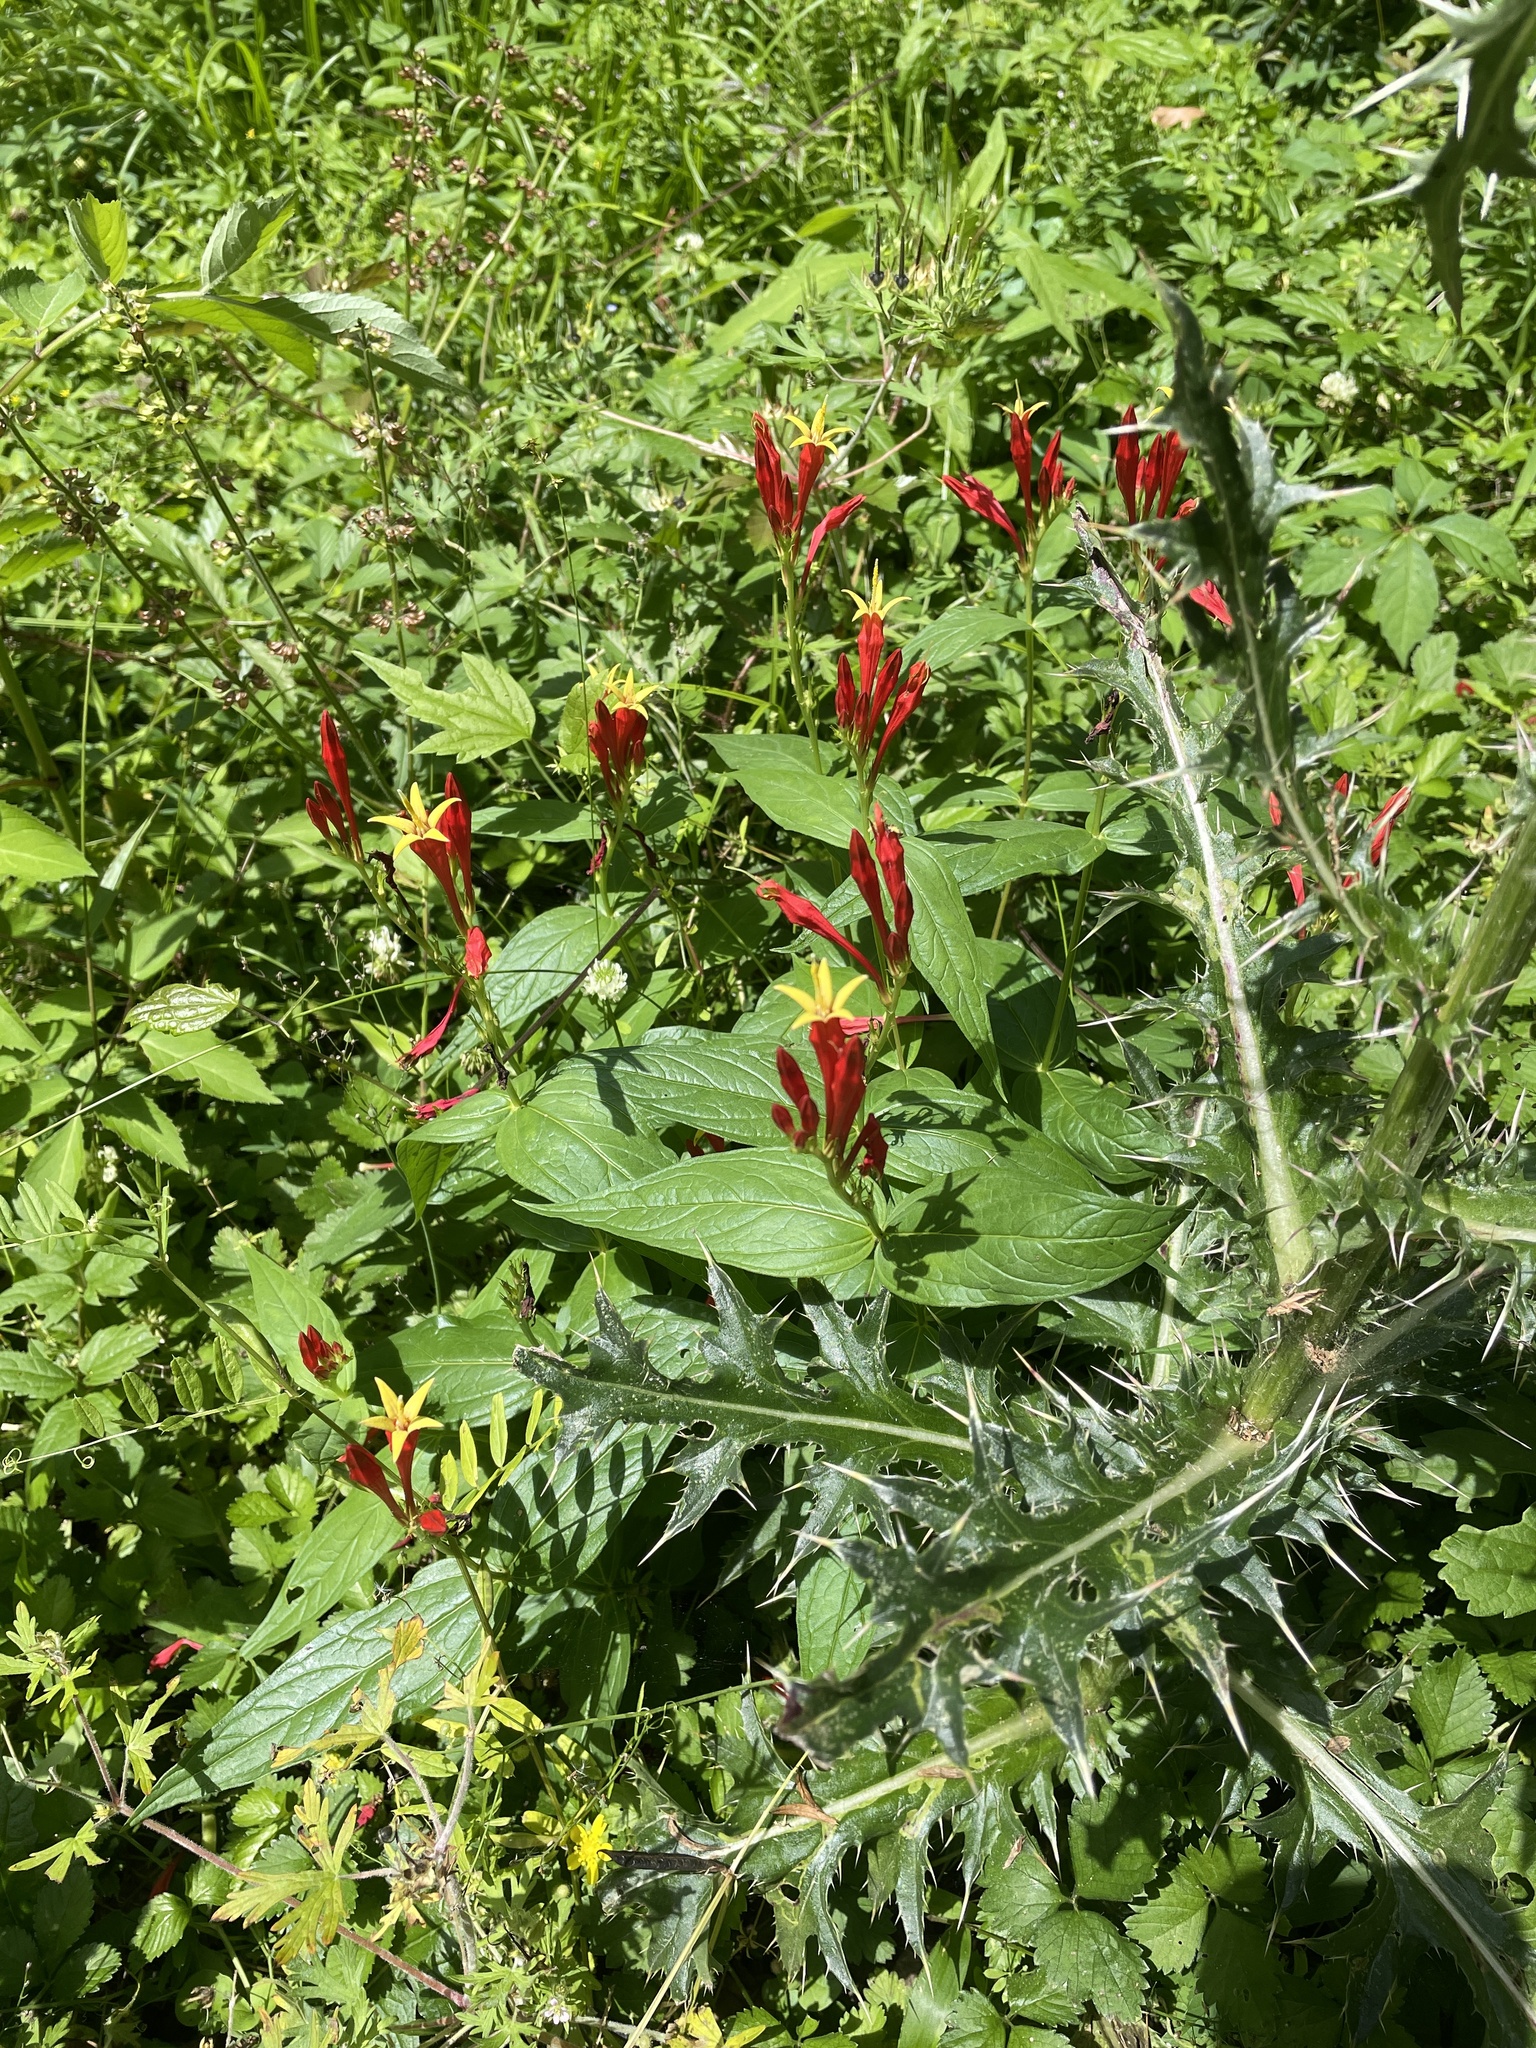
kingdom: Plantae
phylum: Tracheophyta
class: Magnoliopsida
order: Gentianales
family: Loganiaceae
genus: Spigelia
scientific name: Spigelia marilandica
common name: Indian-pink
